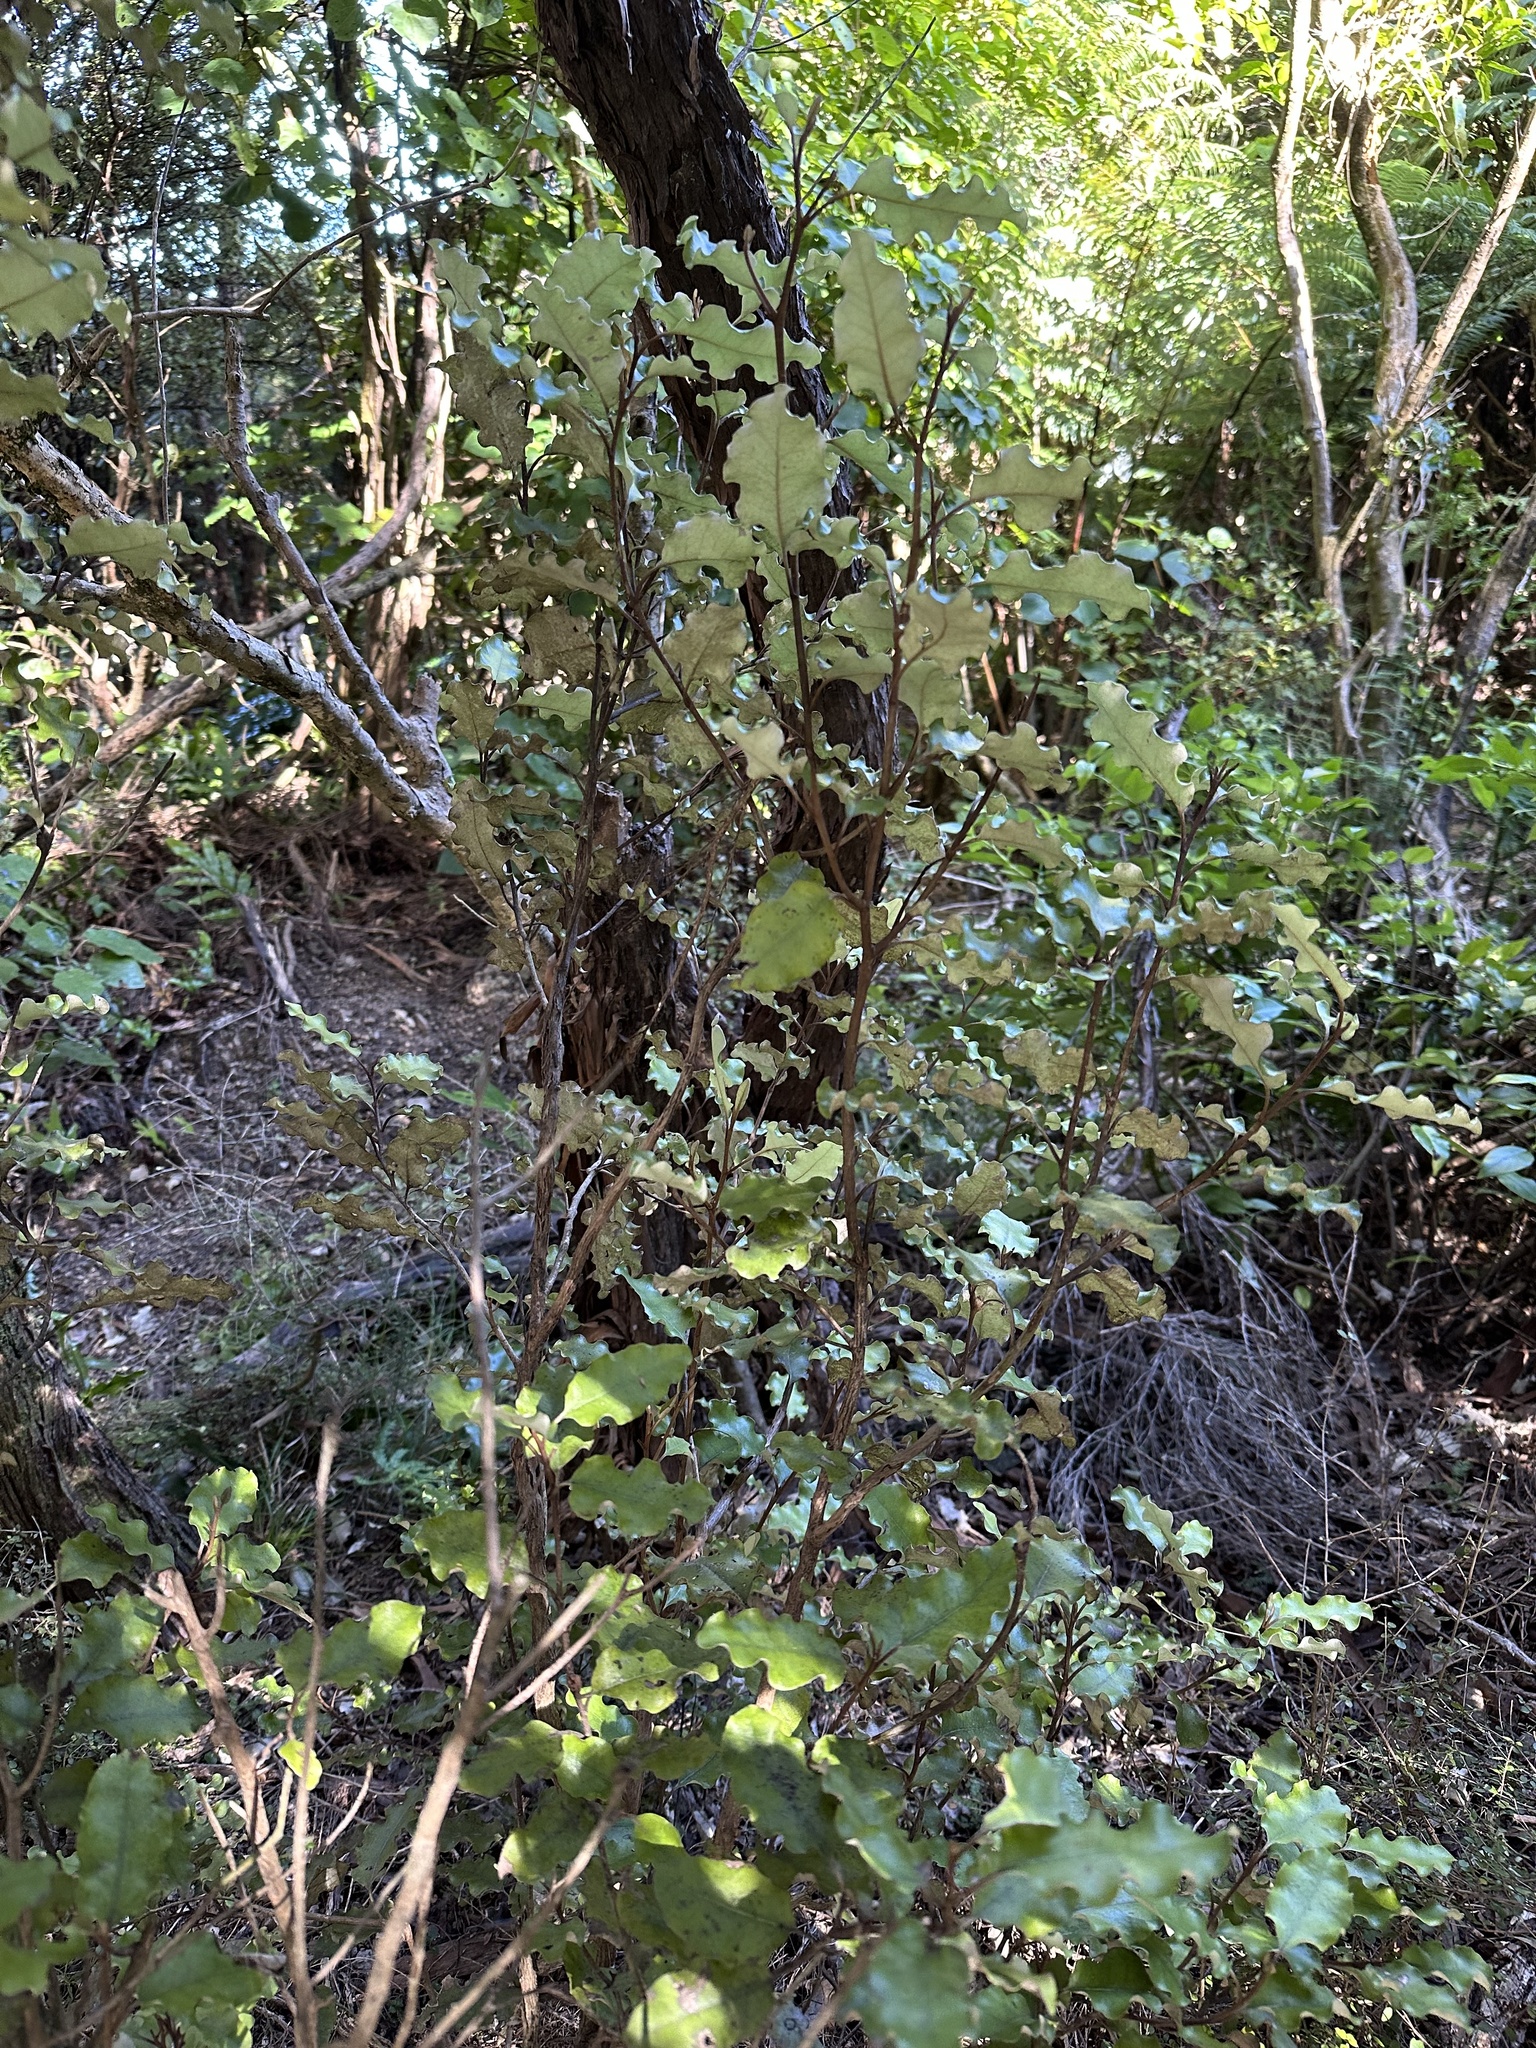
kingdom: Plantae
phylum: Tracheophyta
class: Magnoliopsida
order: Asterales
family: Asteraceae
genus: Olearia
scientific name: Olearia paniculata
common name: Akiraho
